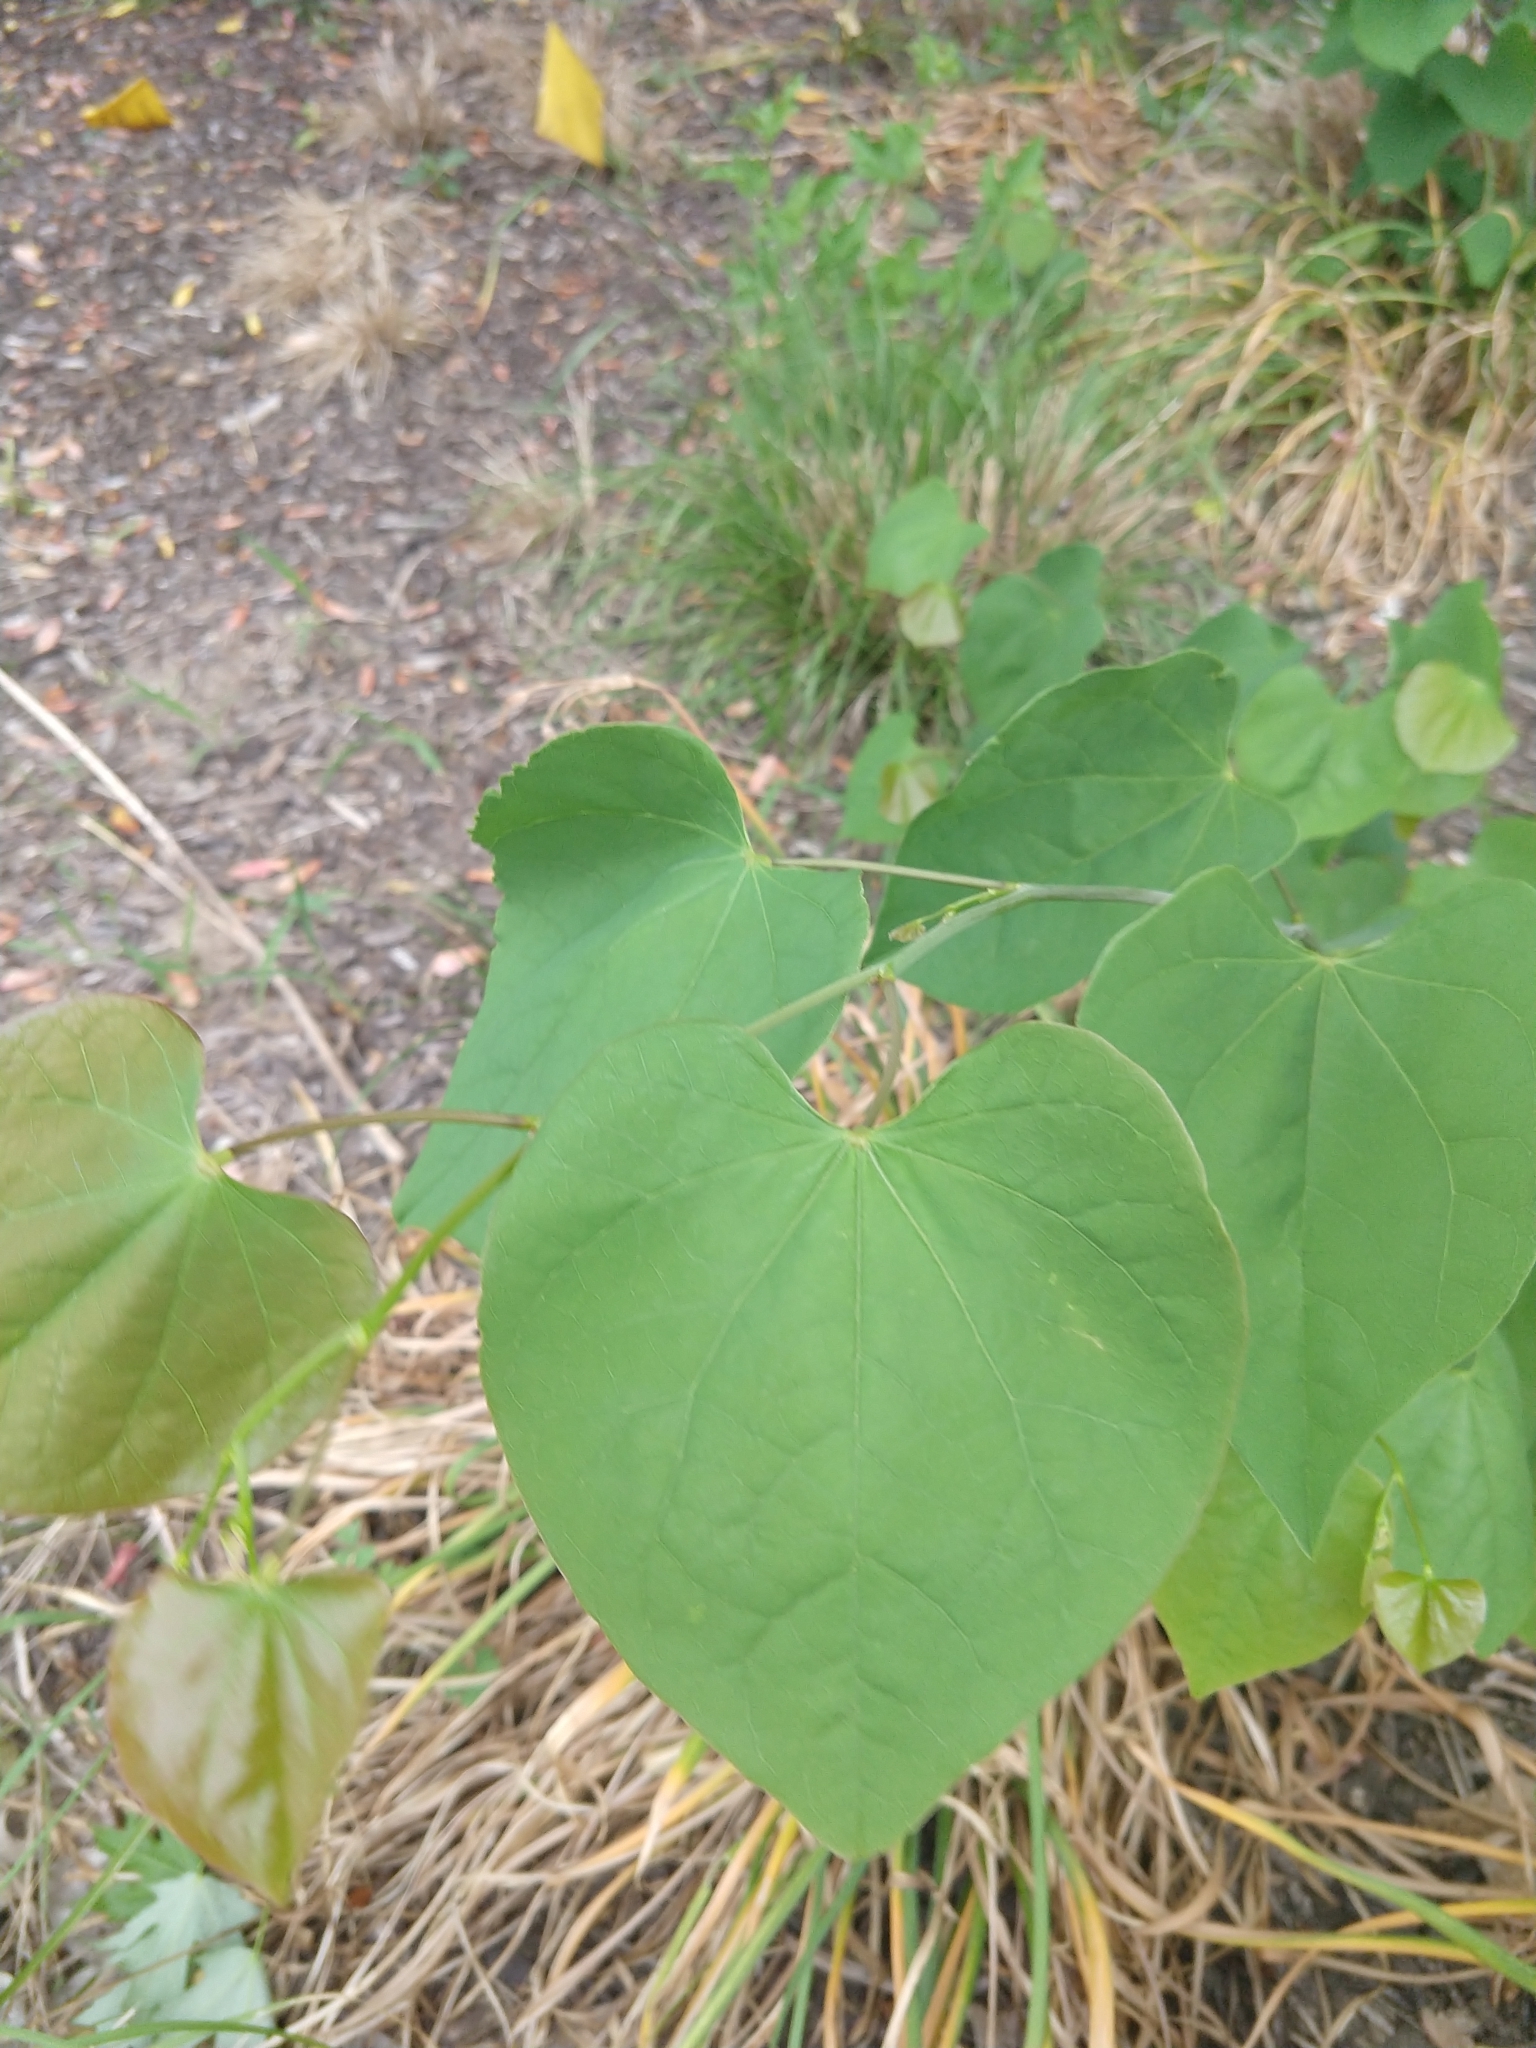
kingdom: Plantae
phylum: Tracheophyta
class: Magnoliopsida
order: Fabales
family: Fabaceae
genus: Cercis
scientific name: Cercis canadensis
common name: Eastern redbud
